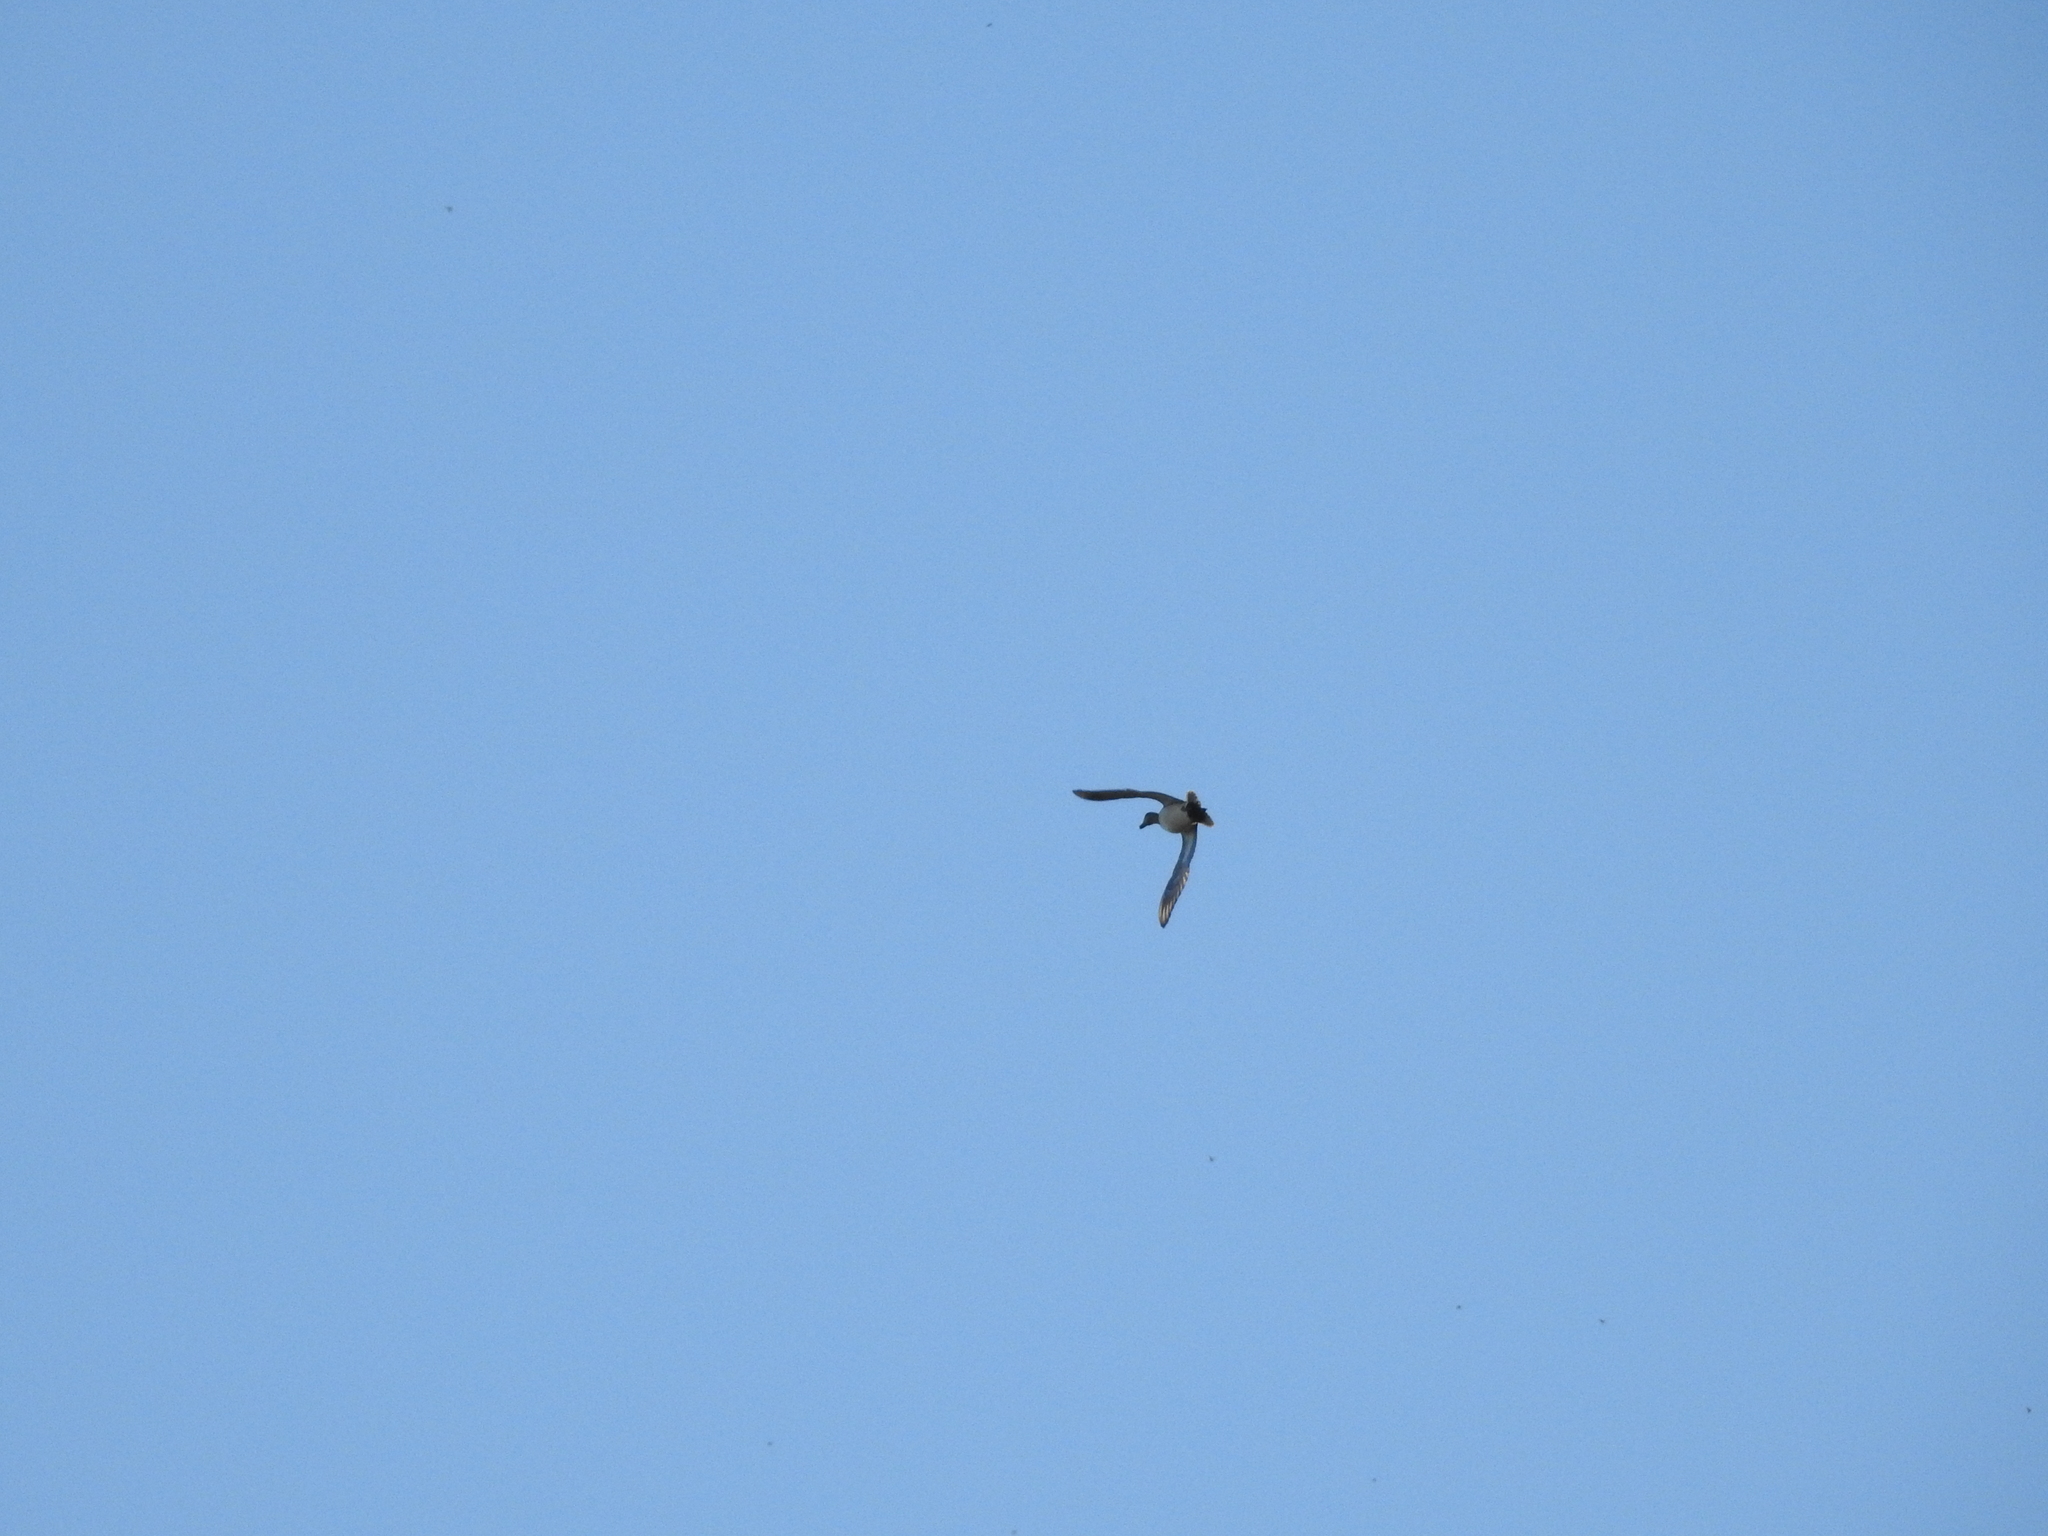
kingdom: Animalia
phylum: Chordata
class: Aves
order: Anseriformes
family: Anatidae
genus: Mareca
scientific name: Mareca americana
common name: American wigeon
